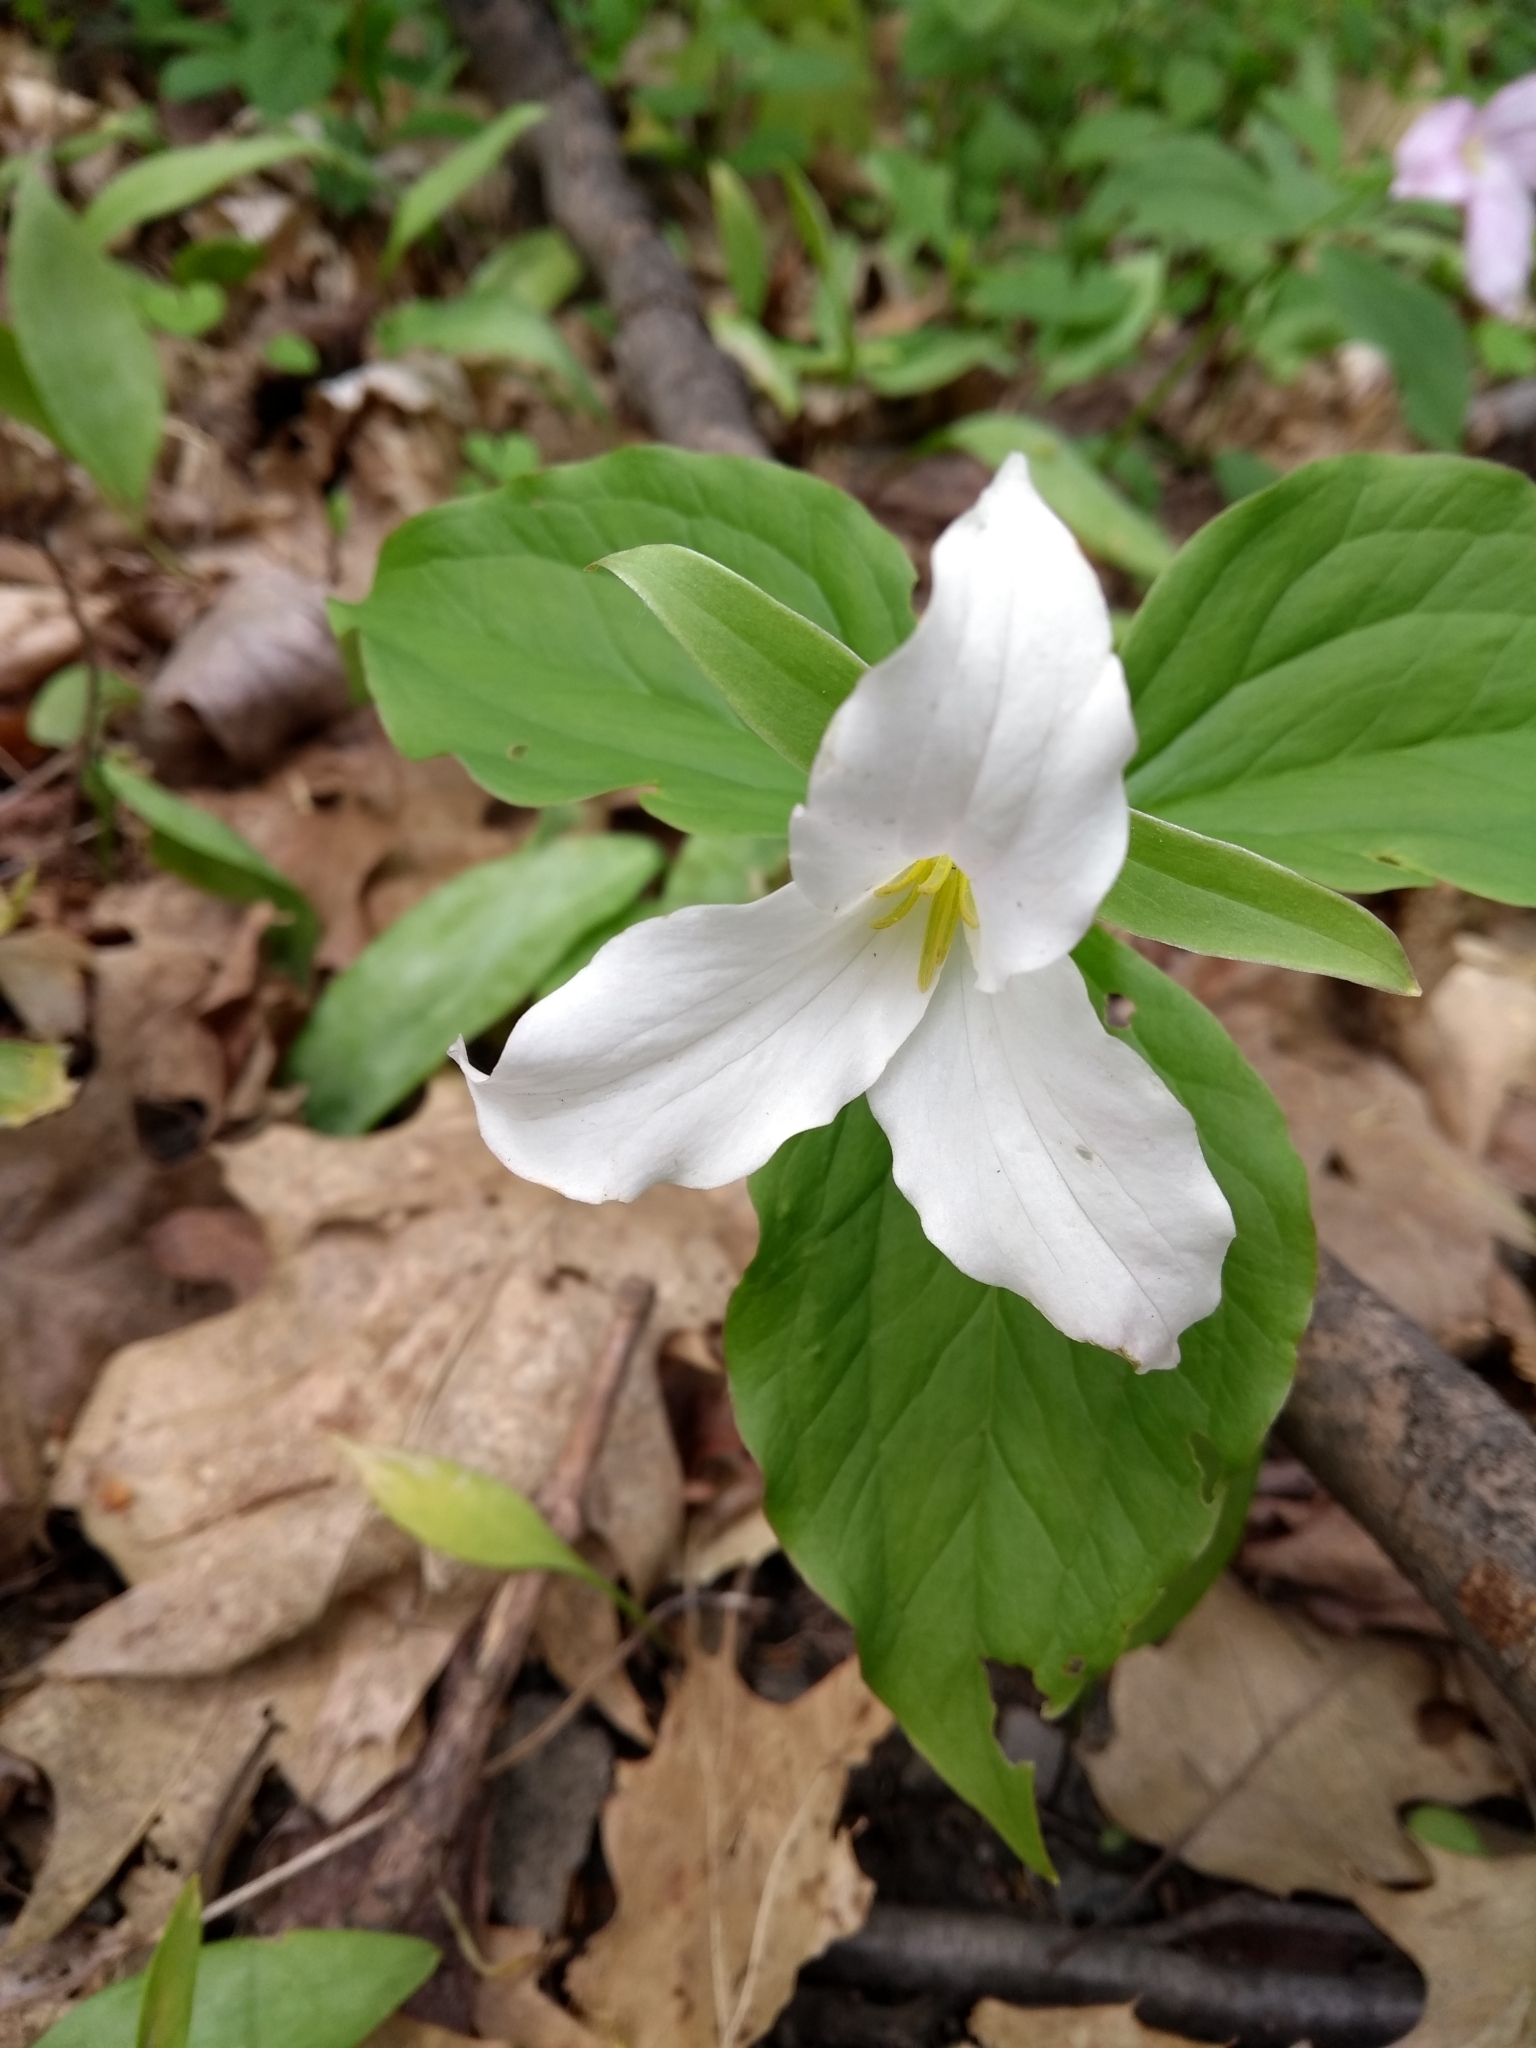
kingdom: Plantae
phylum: Tracheophyta
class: Liliopsida
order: Liliales
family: Melanthiaceae
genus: Trillium
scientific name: Trillium grandiflorum
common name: Great white trillium
